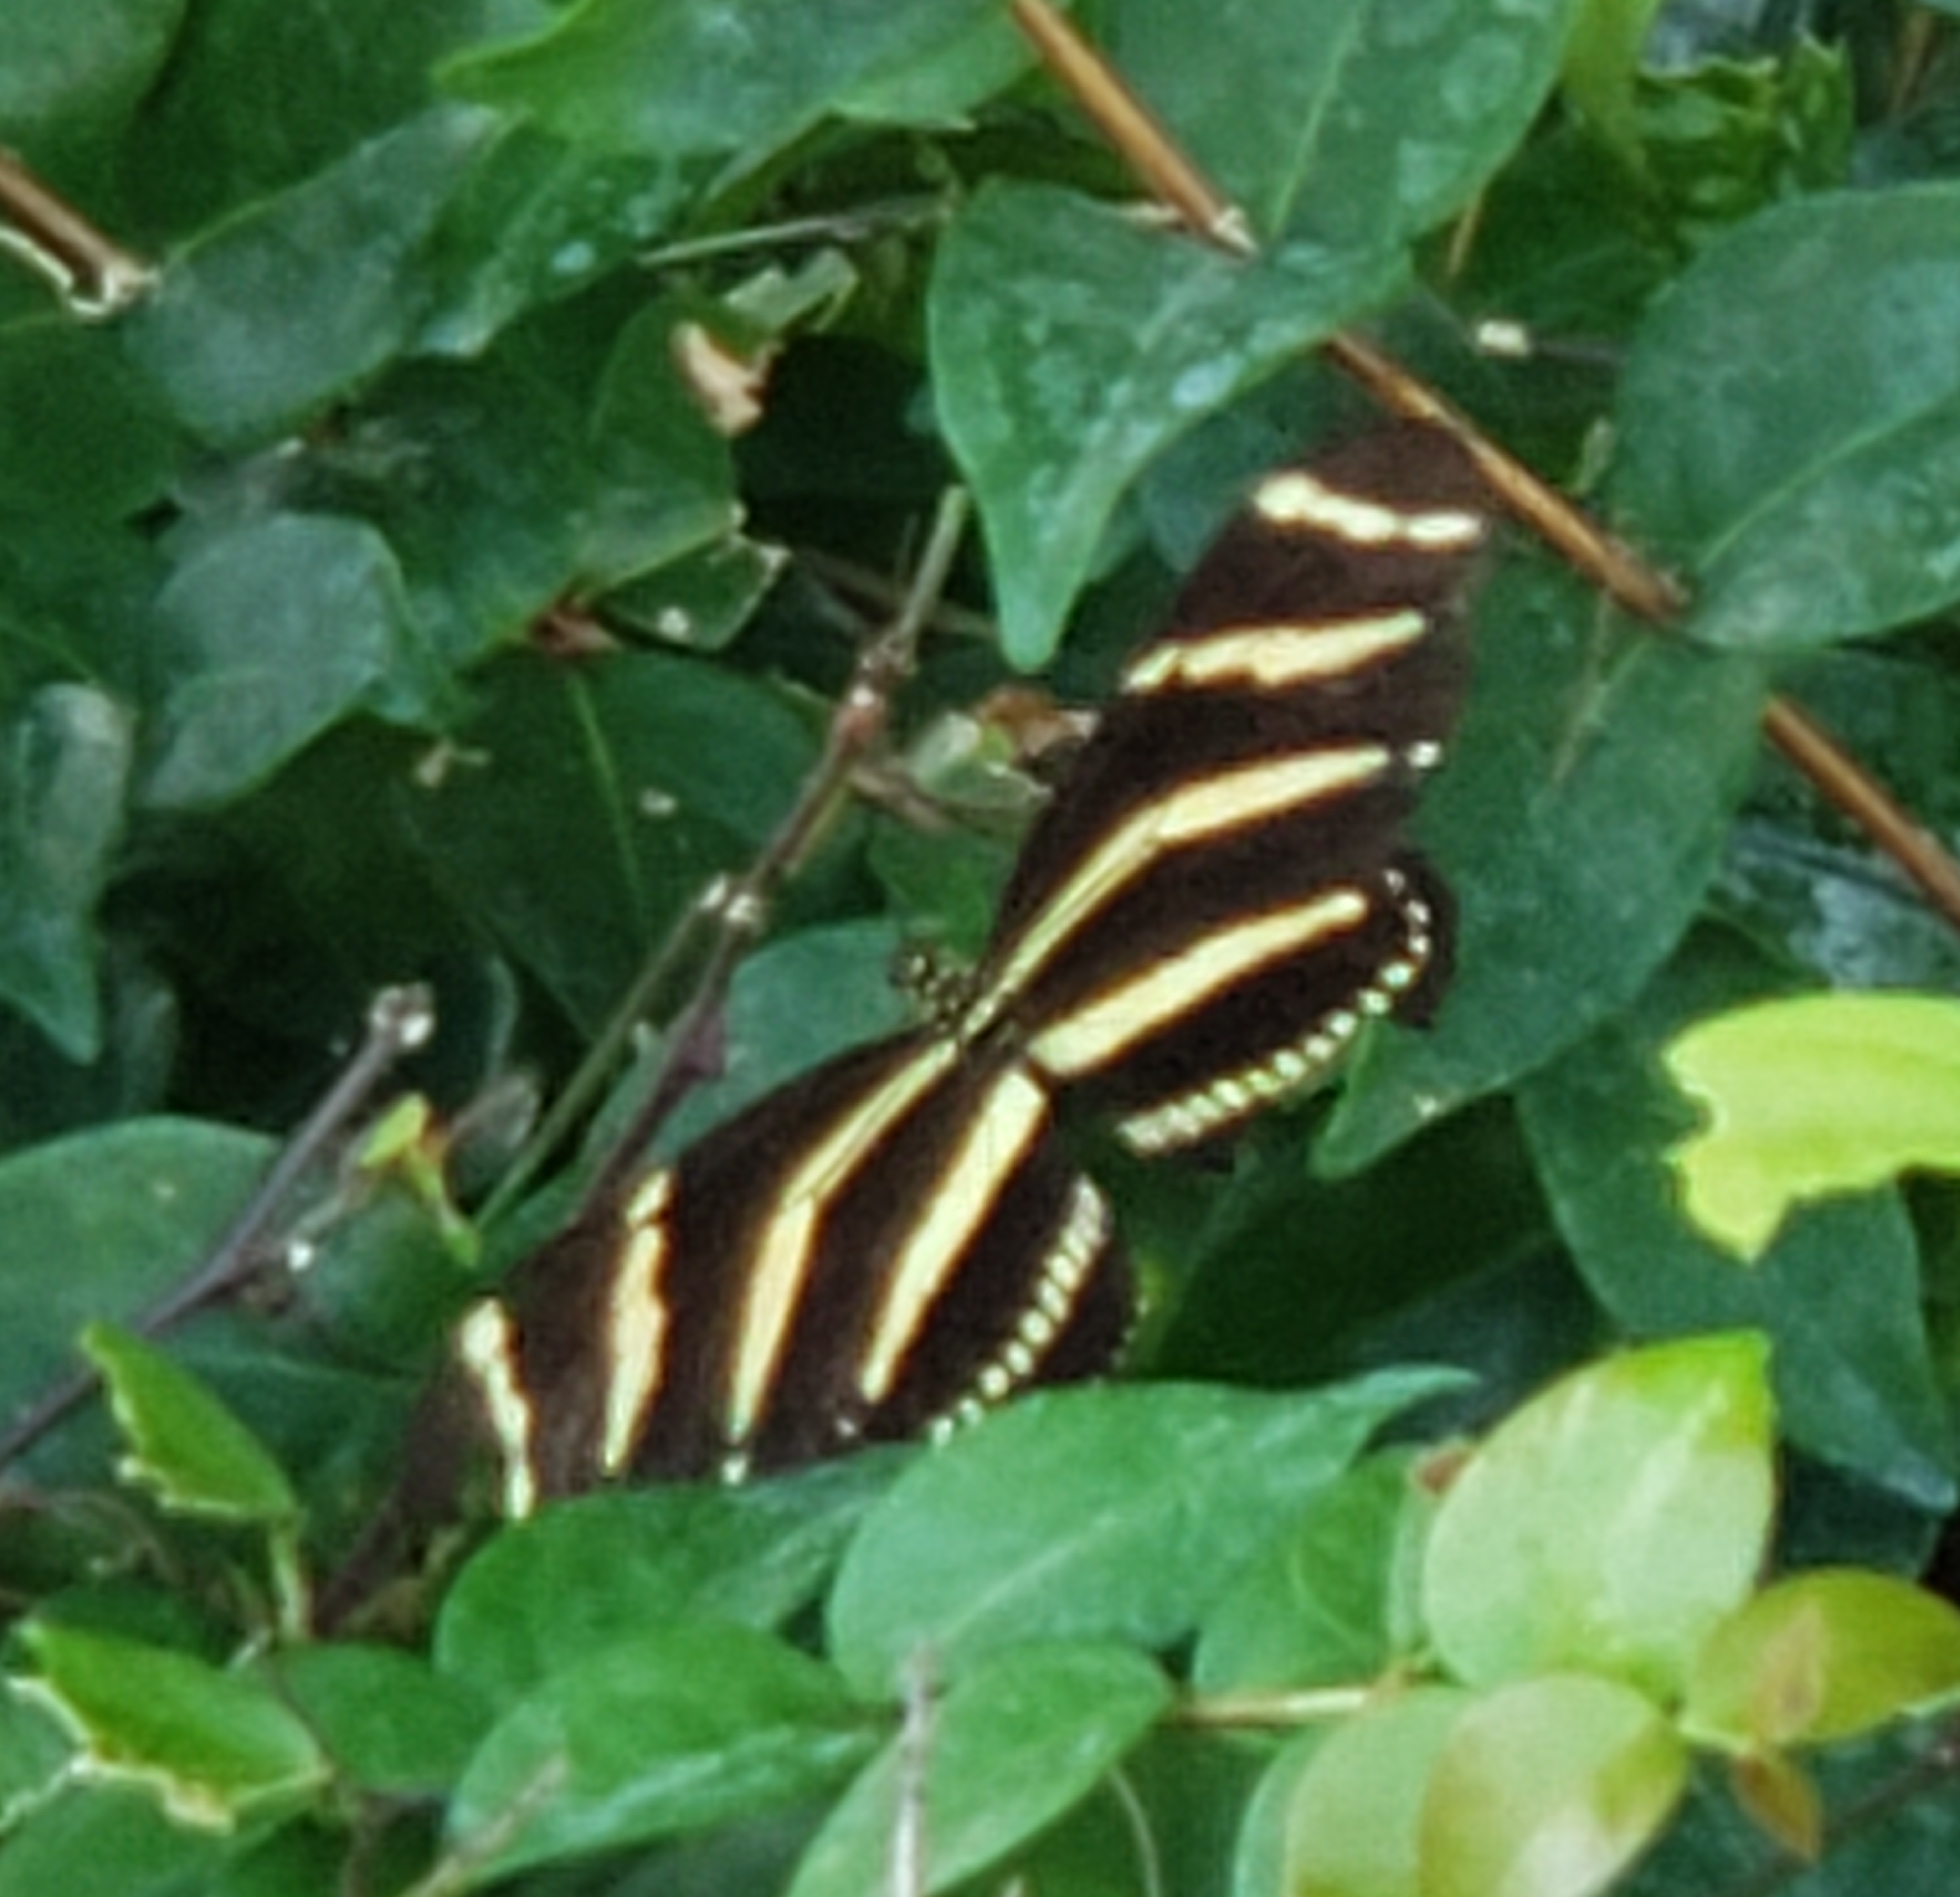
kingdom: Animalia
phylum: Arthropoda
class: Insecta
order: Lepidoptera
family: Nymphalidae
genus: Heliconius
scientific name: Heliconius charithonia
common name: Zebra long wing
